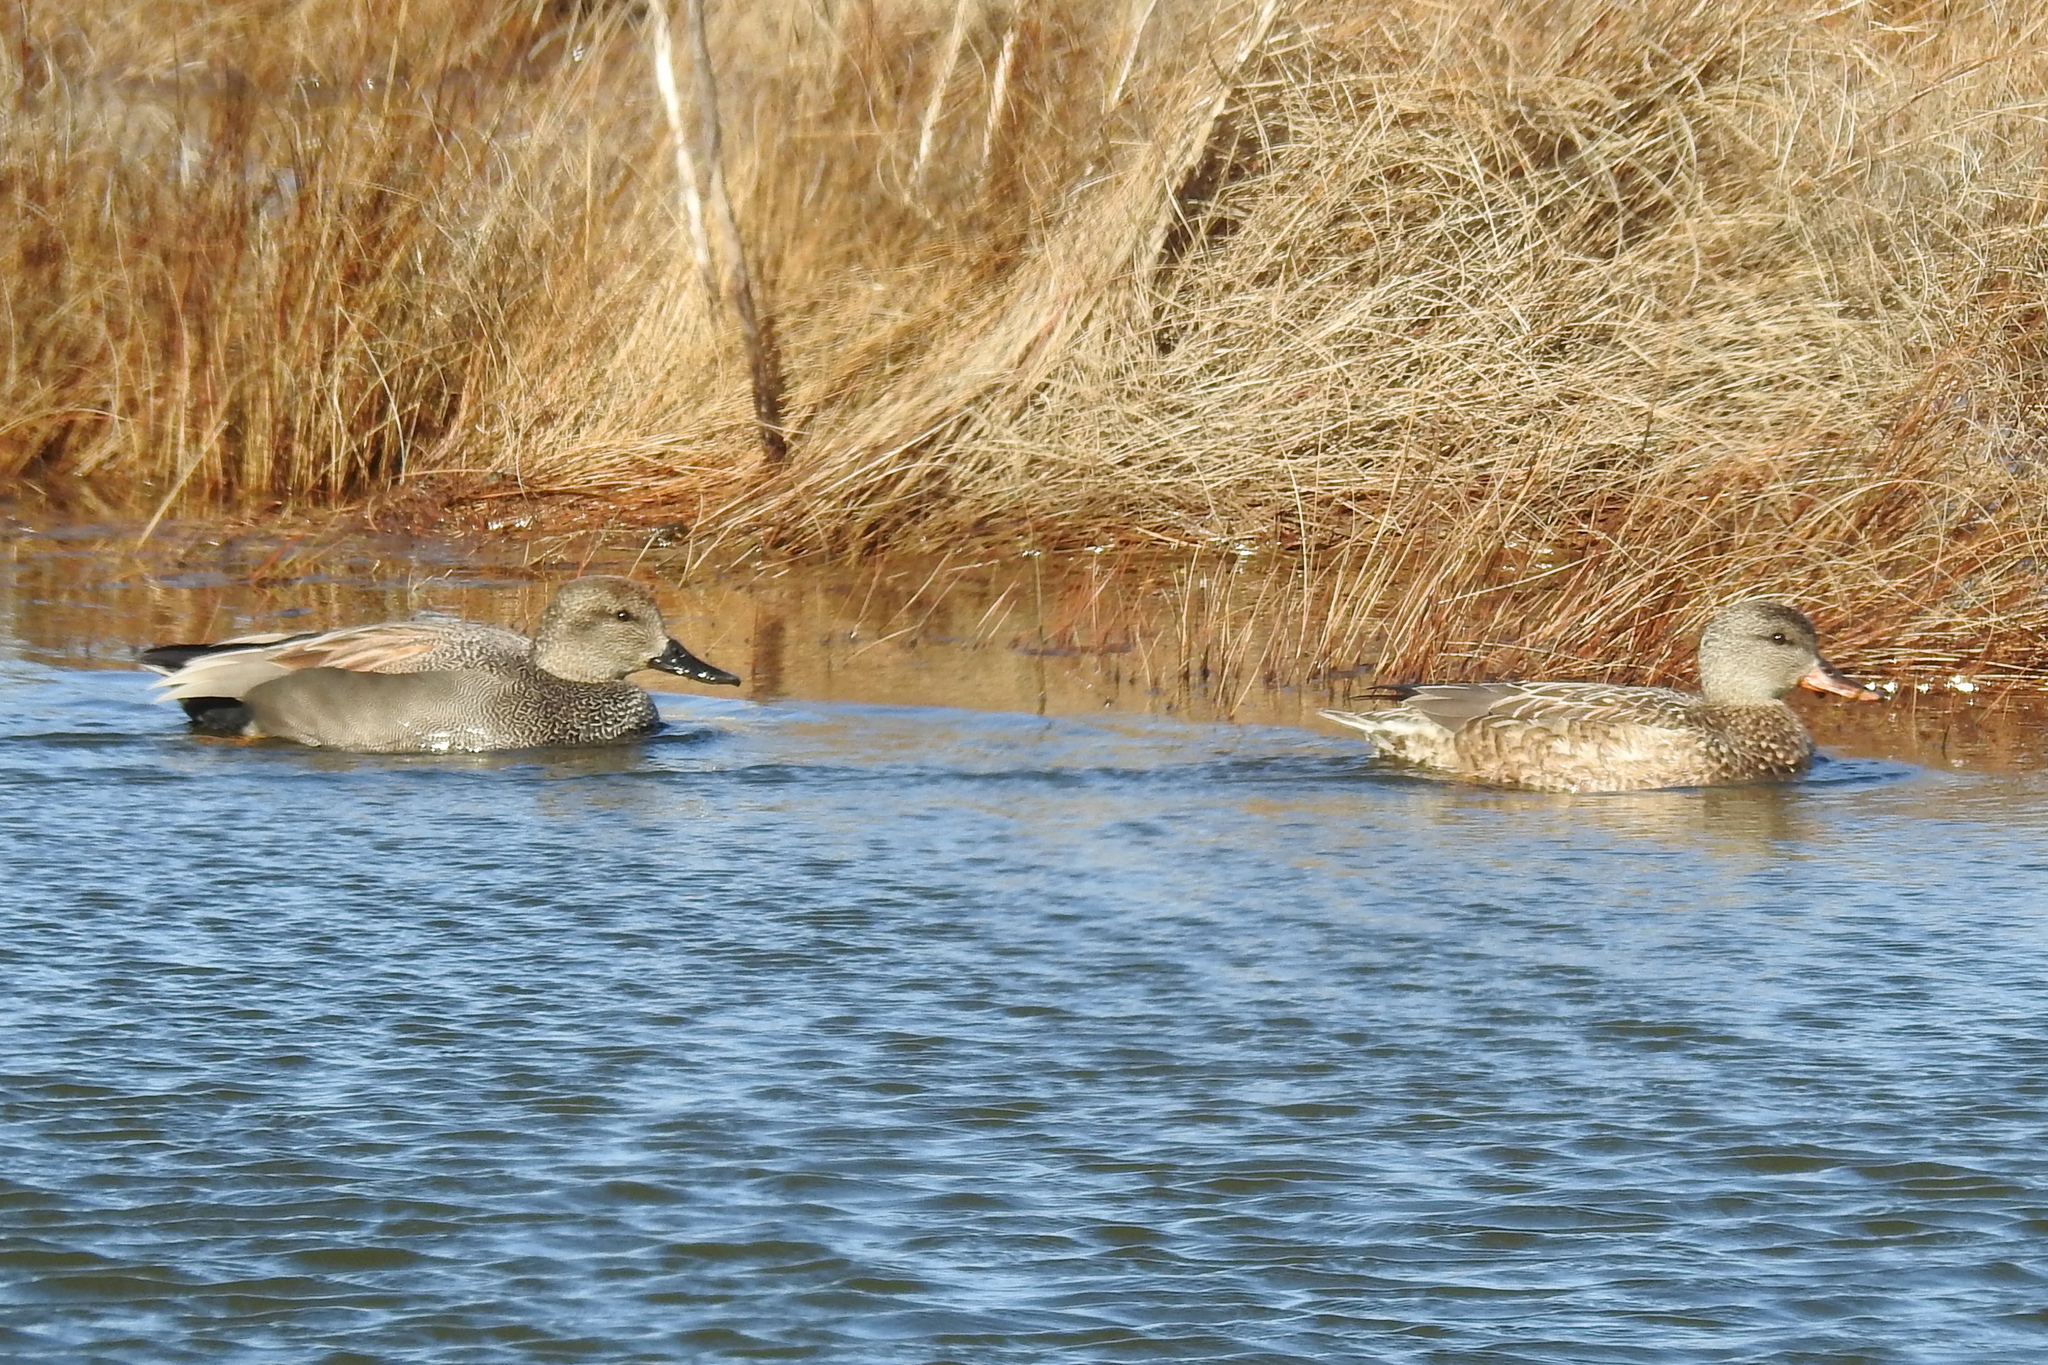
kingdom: Animalia
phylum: Chordata
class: Aves
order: Anseriformes
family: Anatidae
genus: Mareca
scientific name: Mareca strepera
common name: Gadwall
